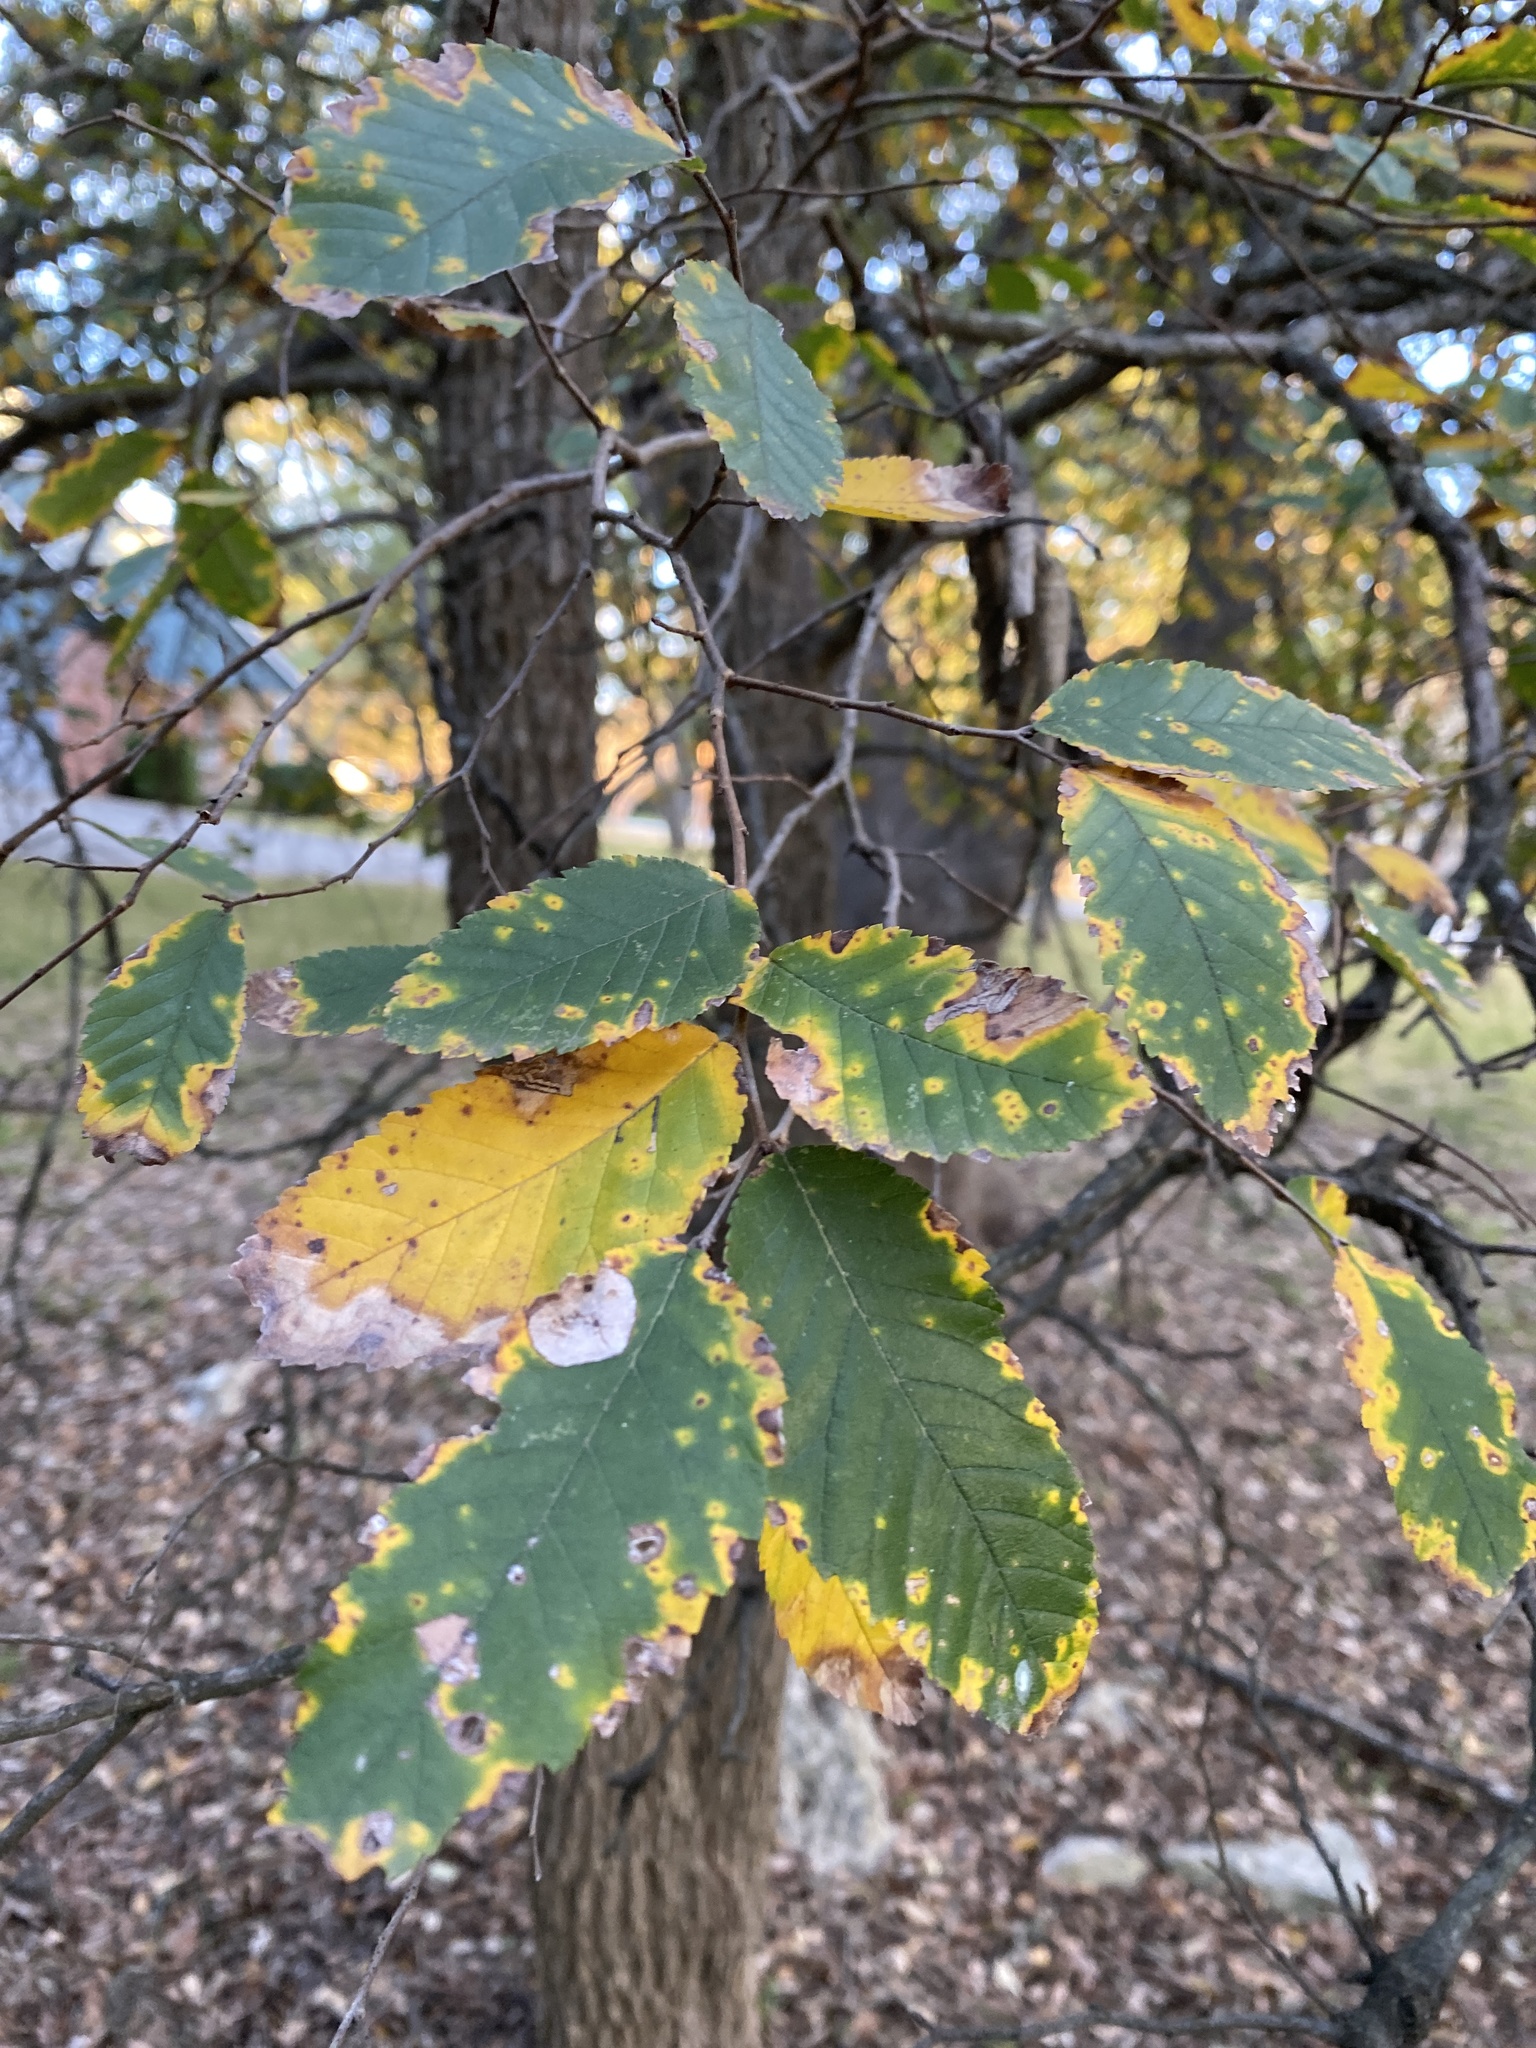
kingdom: Plantae
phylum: Tracheophyta
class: Magnoliopsida
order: Rosales
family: Ulmaceae
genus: Ulmus
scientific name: Ulmus crassifolia
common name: Basket elm
